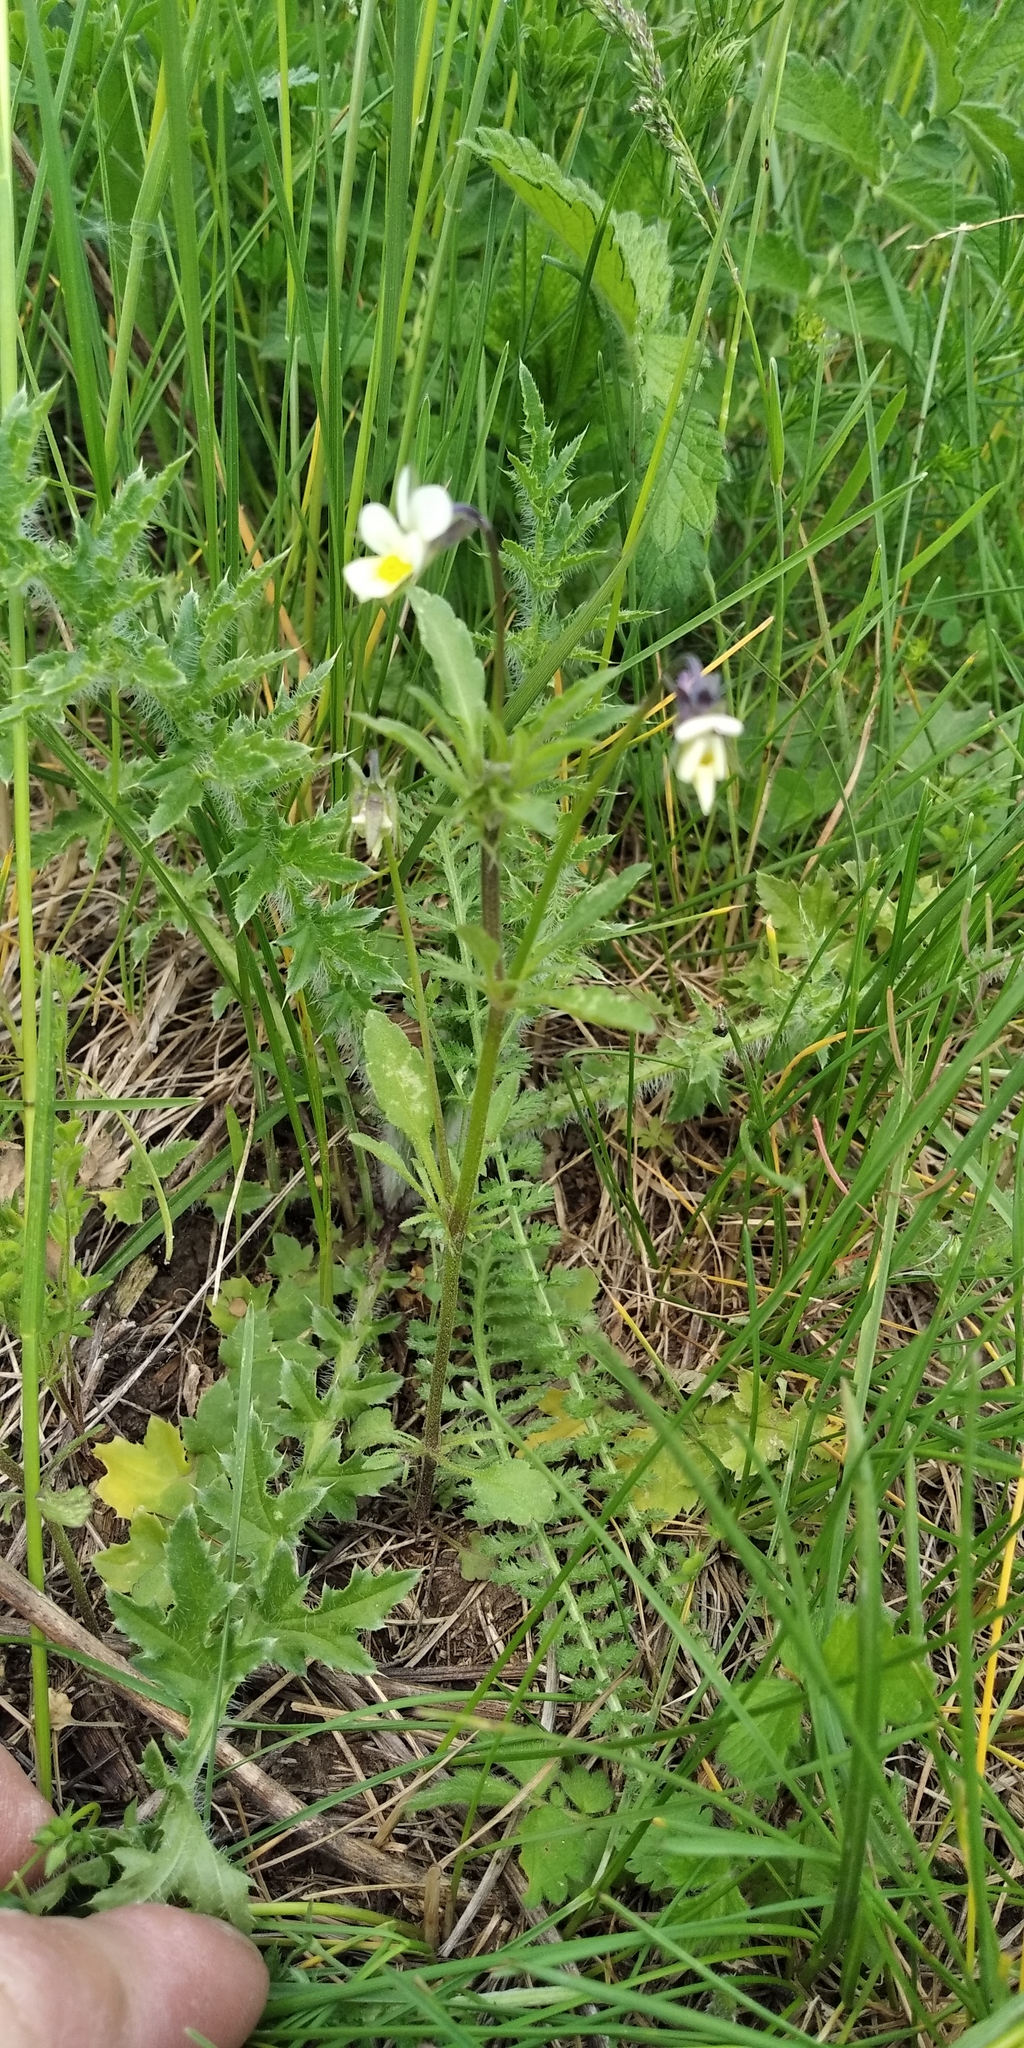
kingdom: Plantae
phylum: Tracheophyta
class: Magnoliopsida
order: Malpighiales
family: Violaceae
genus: Viola
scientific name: Viola arvensis
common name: Field pansy
